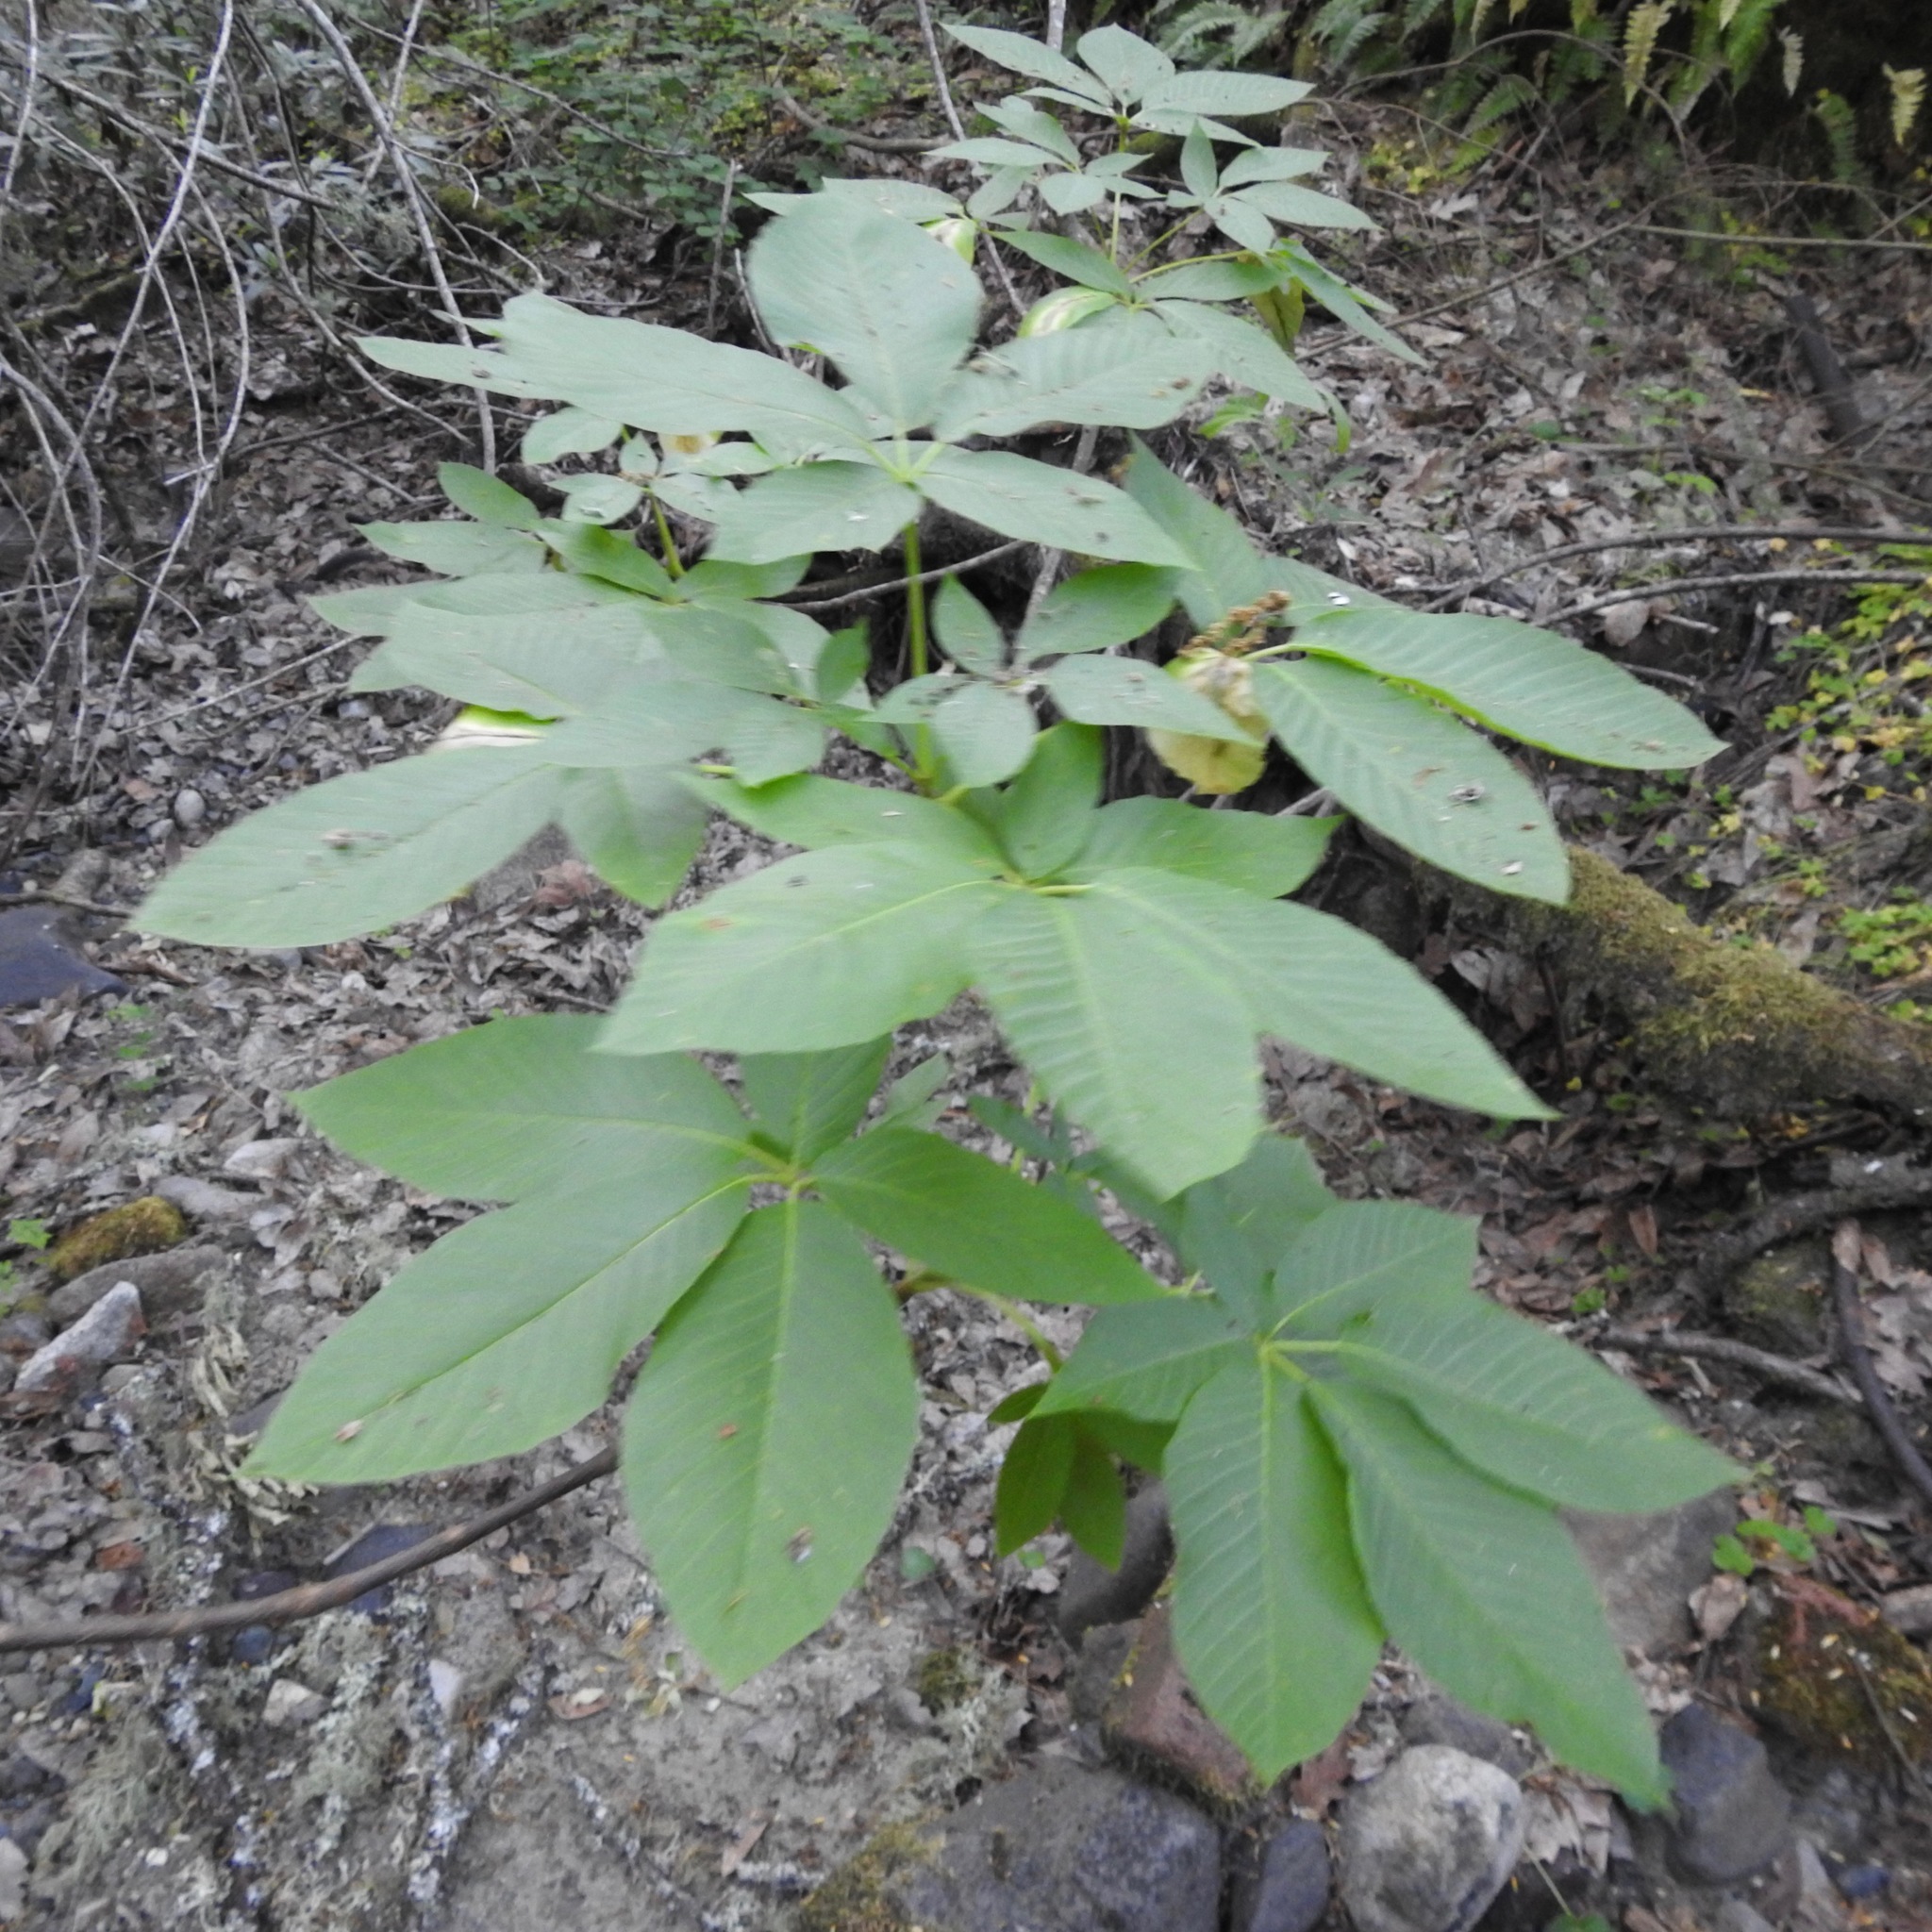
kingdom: Plantae
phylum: Tracheophyta
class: Magnoliopsida
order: Sapindales
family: Sapindaceae
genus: Aesculus
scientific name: Aesculus californica
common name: California buckeye
